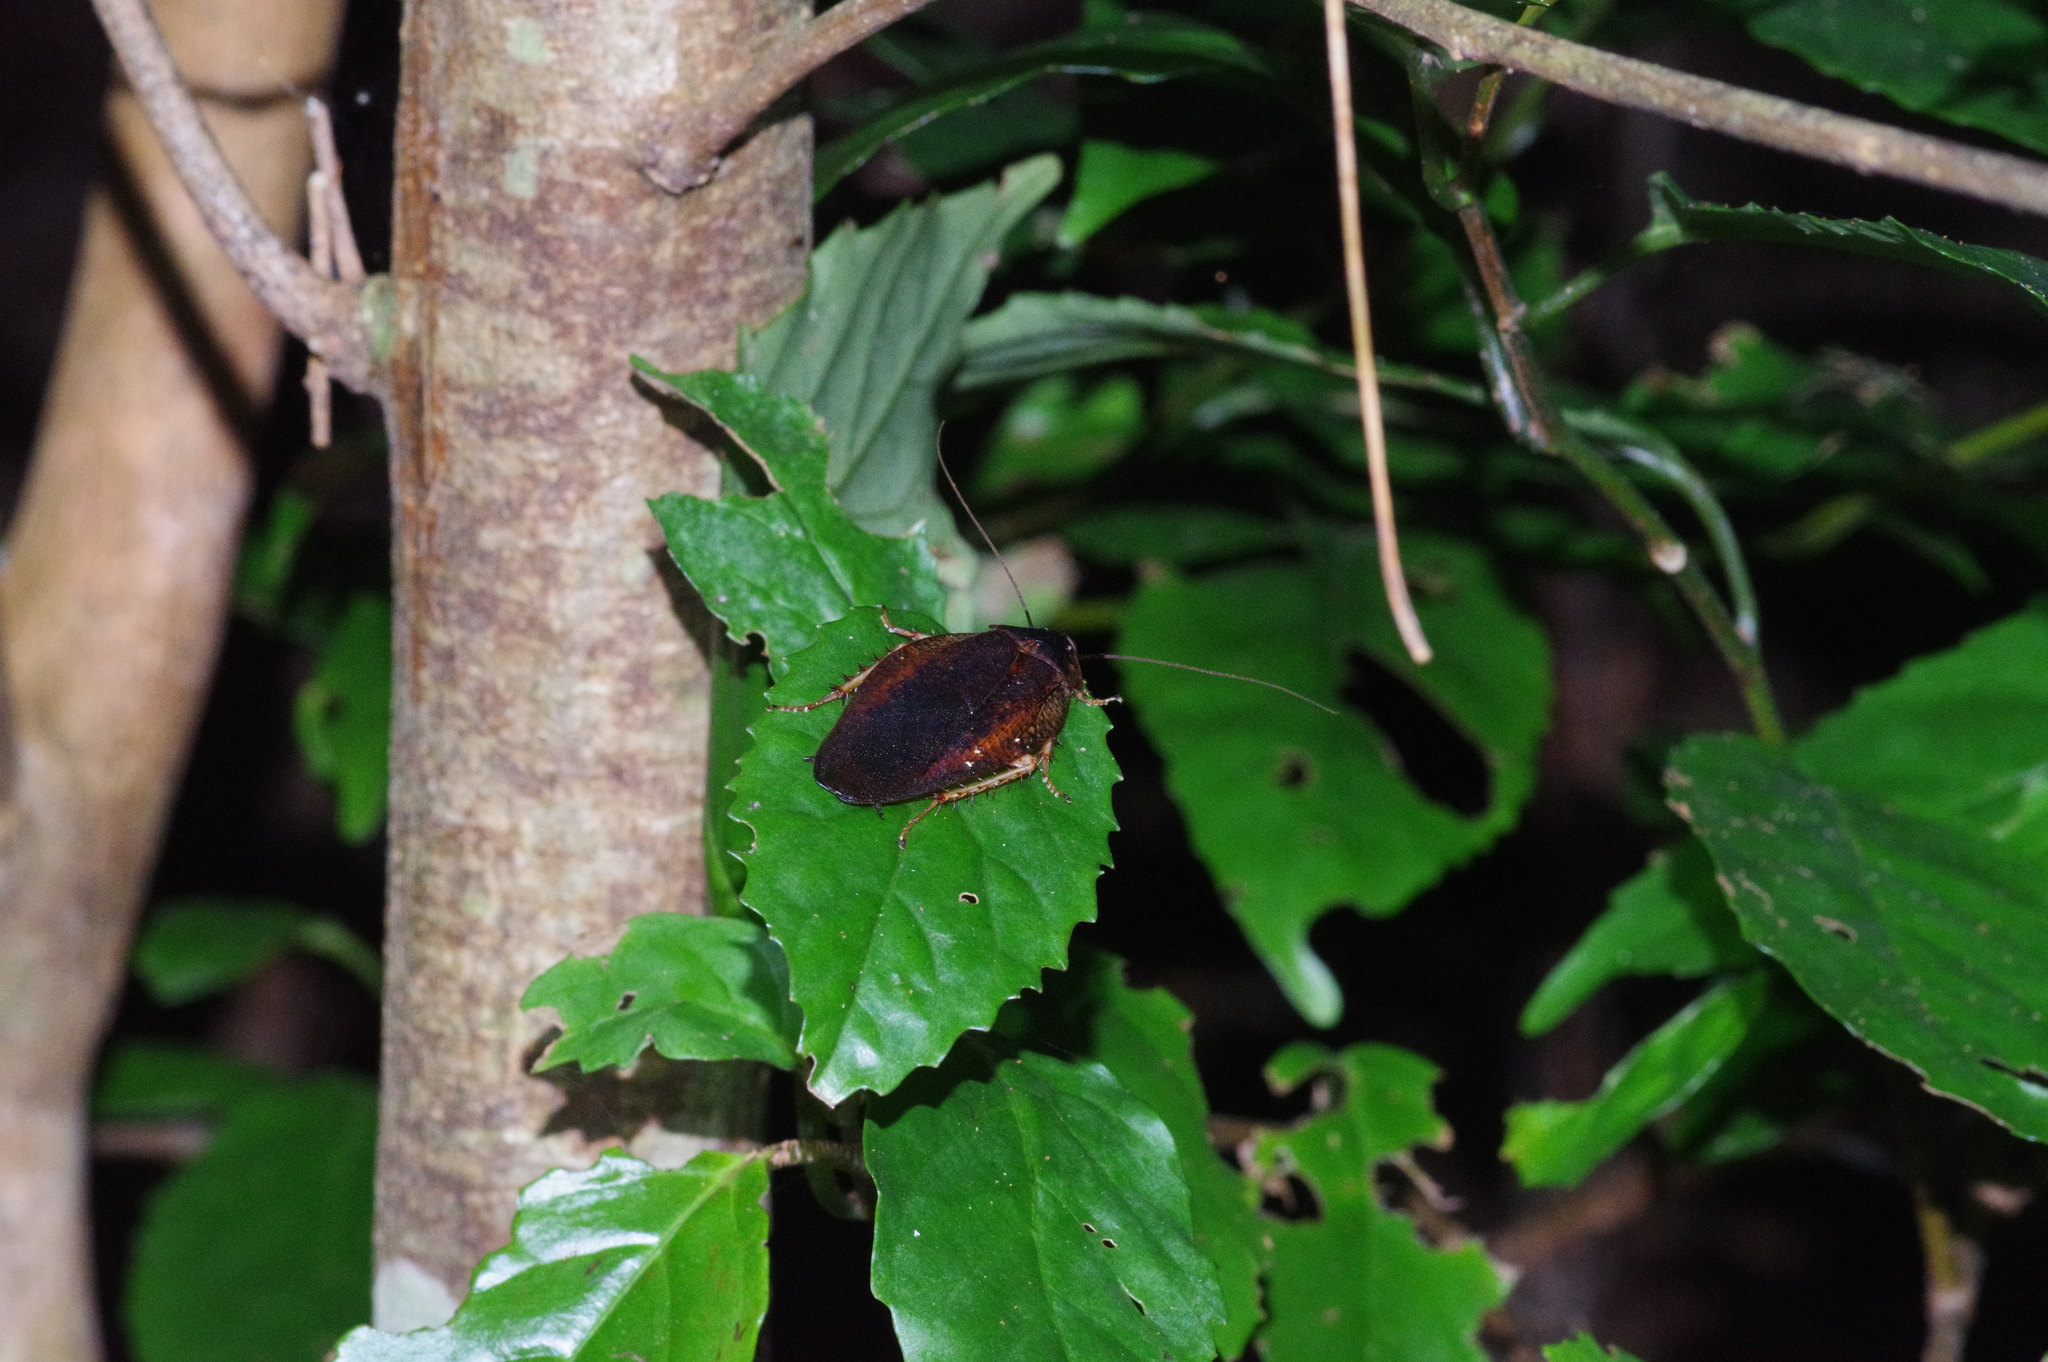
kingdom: Animalia
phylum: Arthropoda
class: Insecta
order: Blattodea
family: Blaberidae
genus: Rhabdoblatta
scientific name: Rhabdoblatta guttigera
